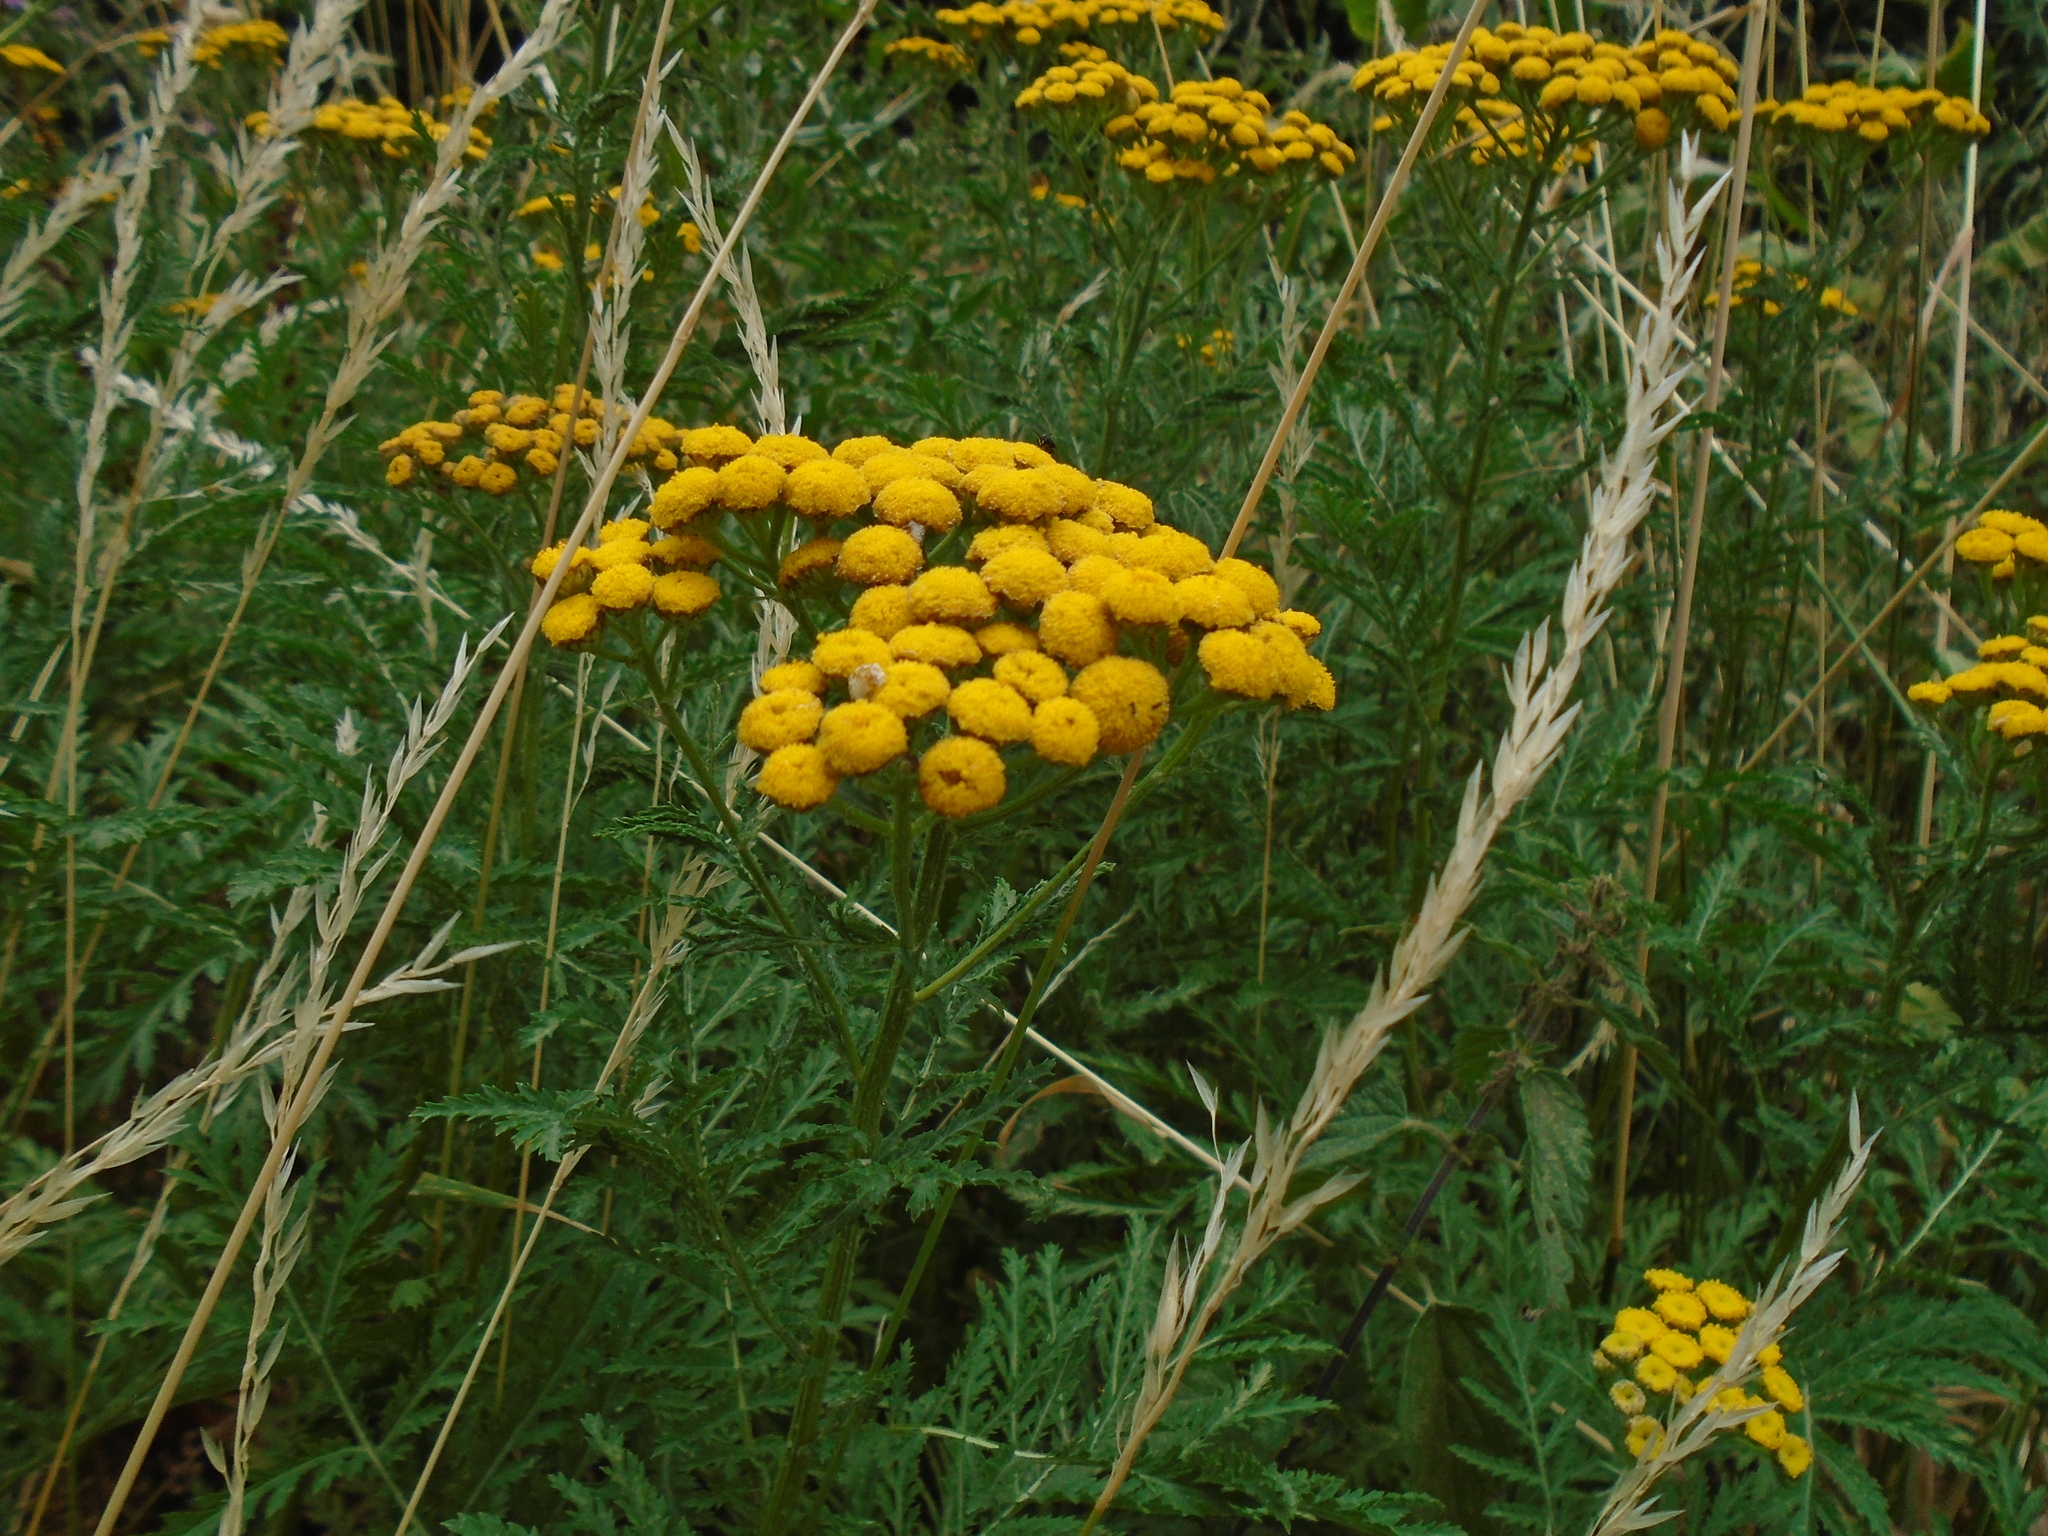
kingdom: Plantae
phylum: Tracheophyta
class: Magnoliopsida
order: Asterales
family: Asteraceae
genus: Tanacetum
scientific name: Tanacetum vulgare
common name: Common tansy
